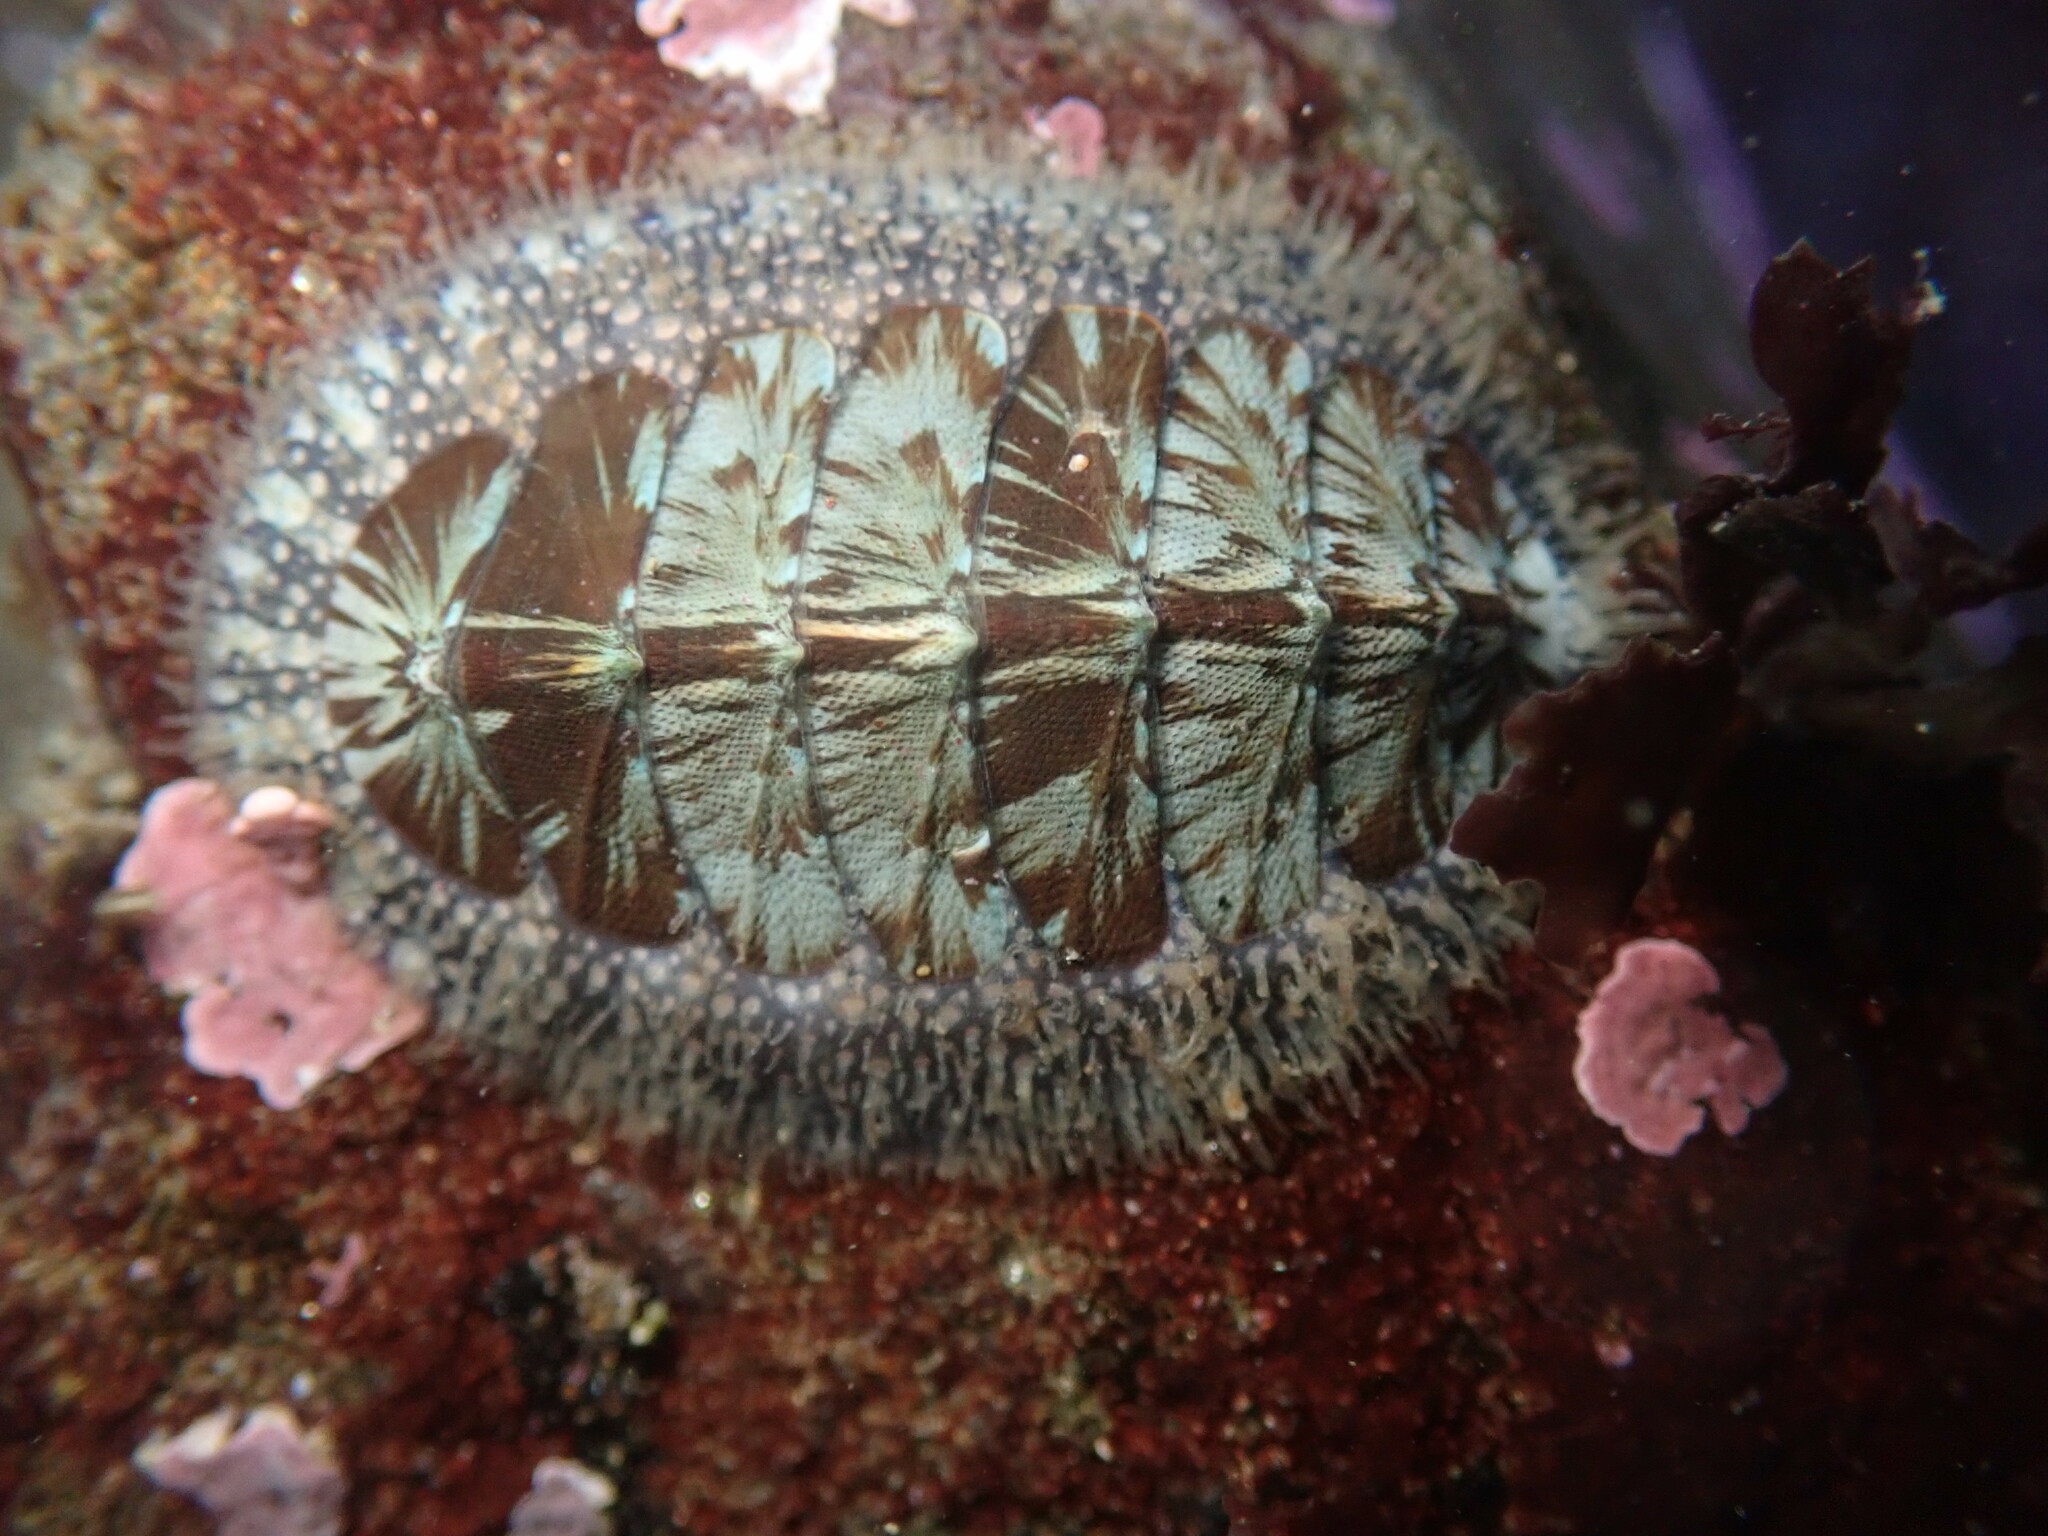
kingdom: Animalia
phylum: Mollusca
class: Polyplacophora
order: Chitonida
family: Mopaliidae
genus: Mopalia
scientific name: Mopalia lignosa
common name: Woody chiton
